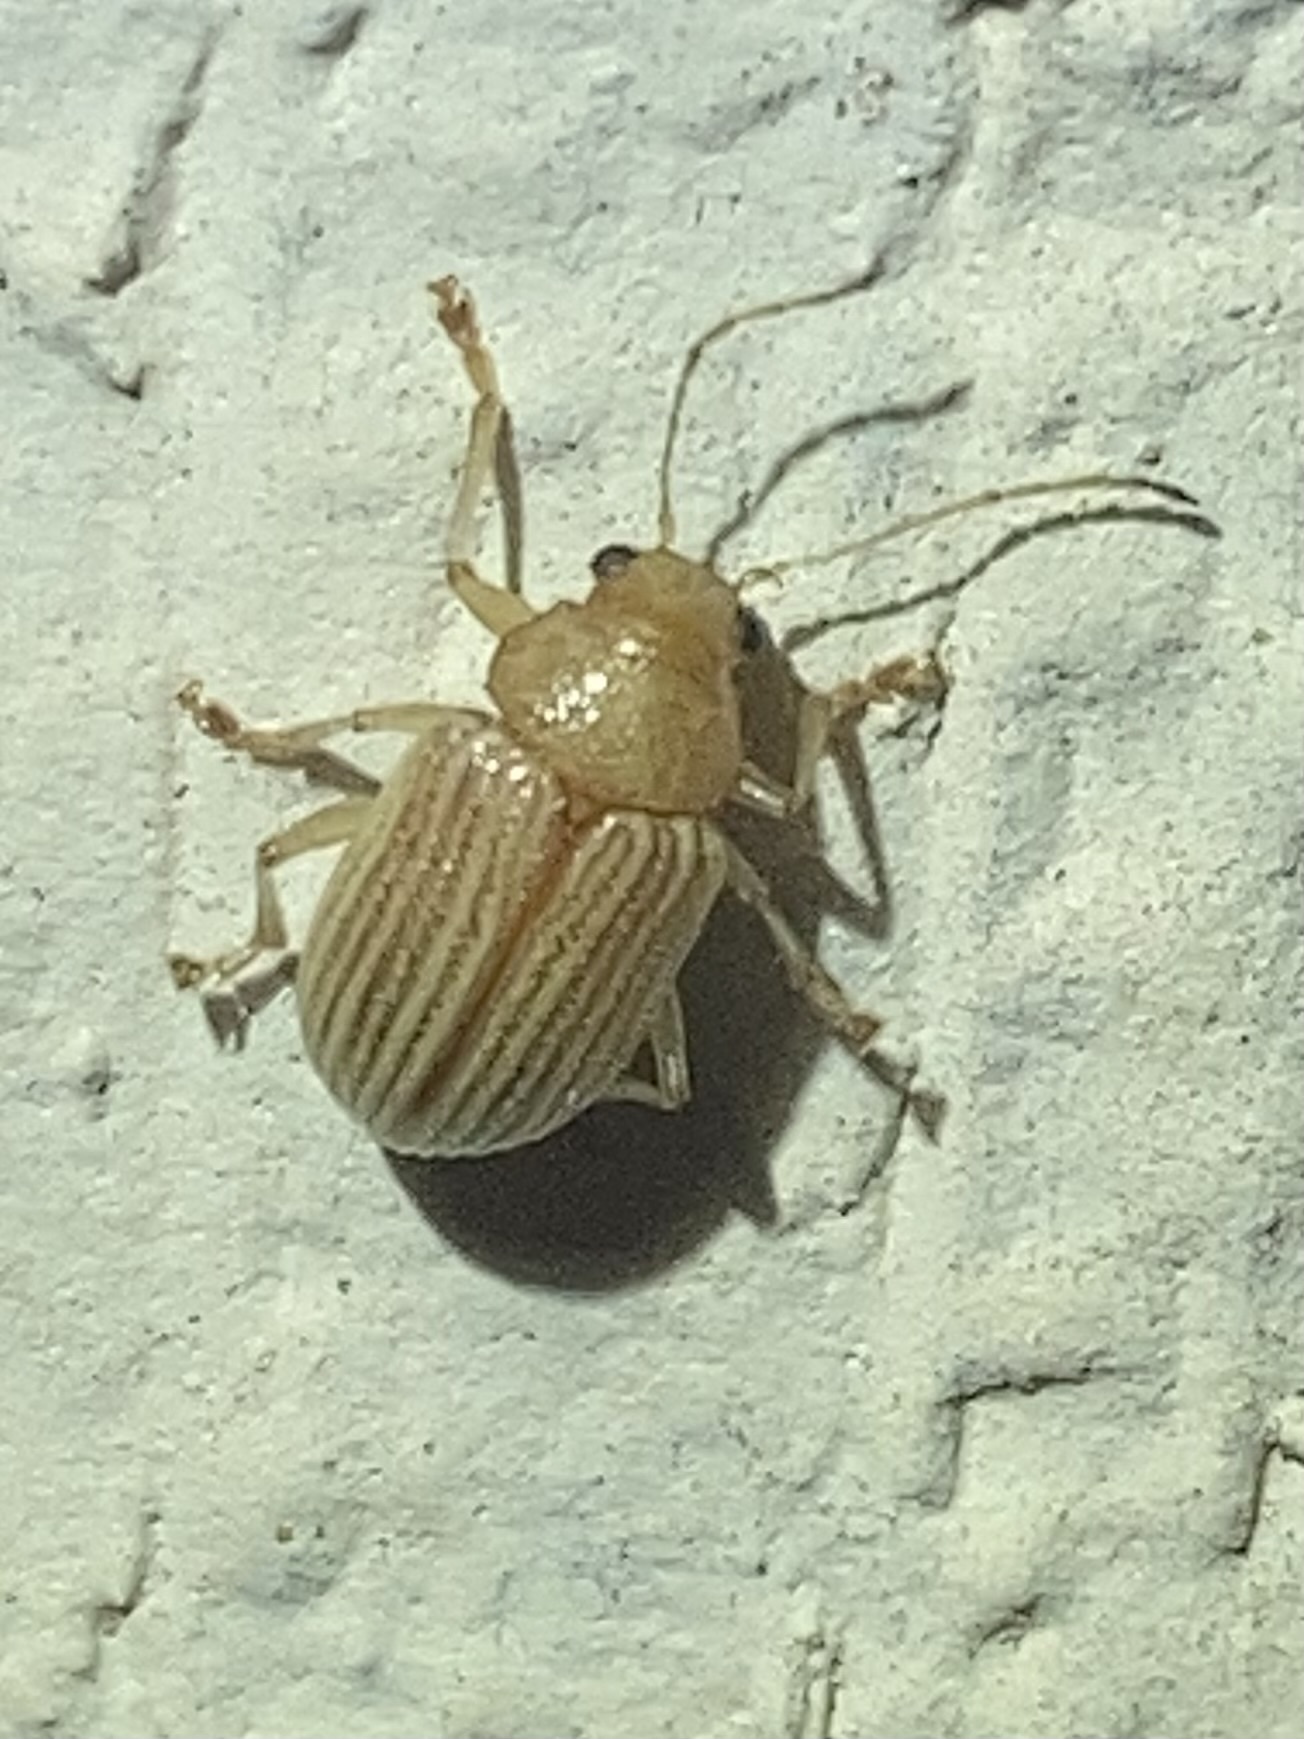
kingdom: Animalia
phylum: Arthropoda
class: Insecta
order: Coleoptera
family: Chrysomelidae
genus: Colaspis
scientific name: Colaspis brunnea
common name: Grape colaspis
